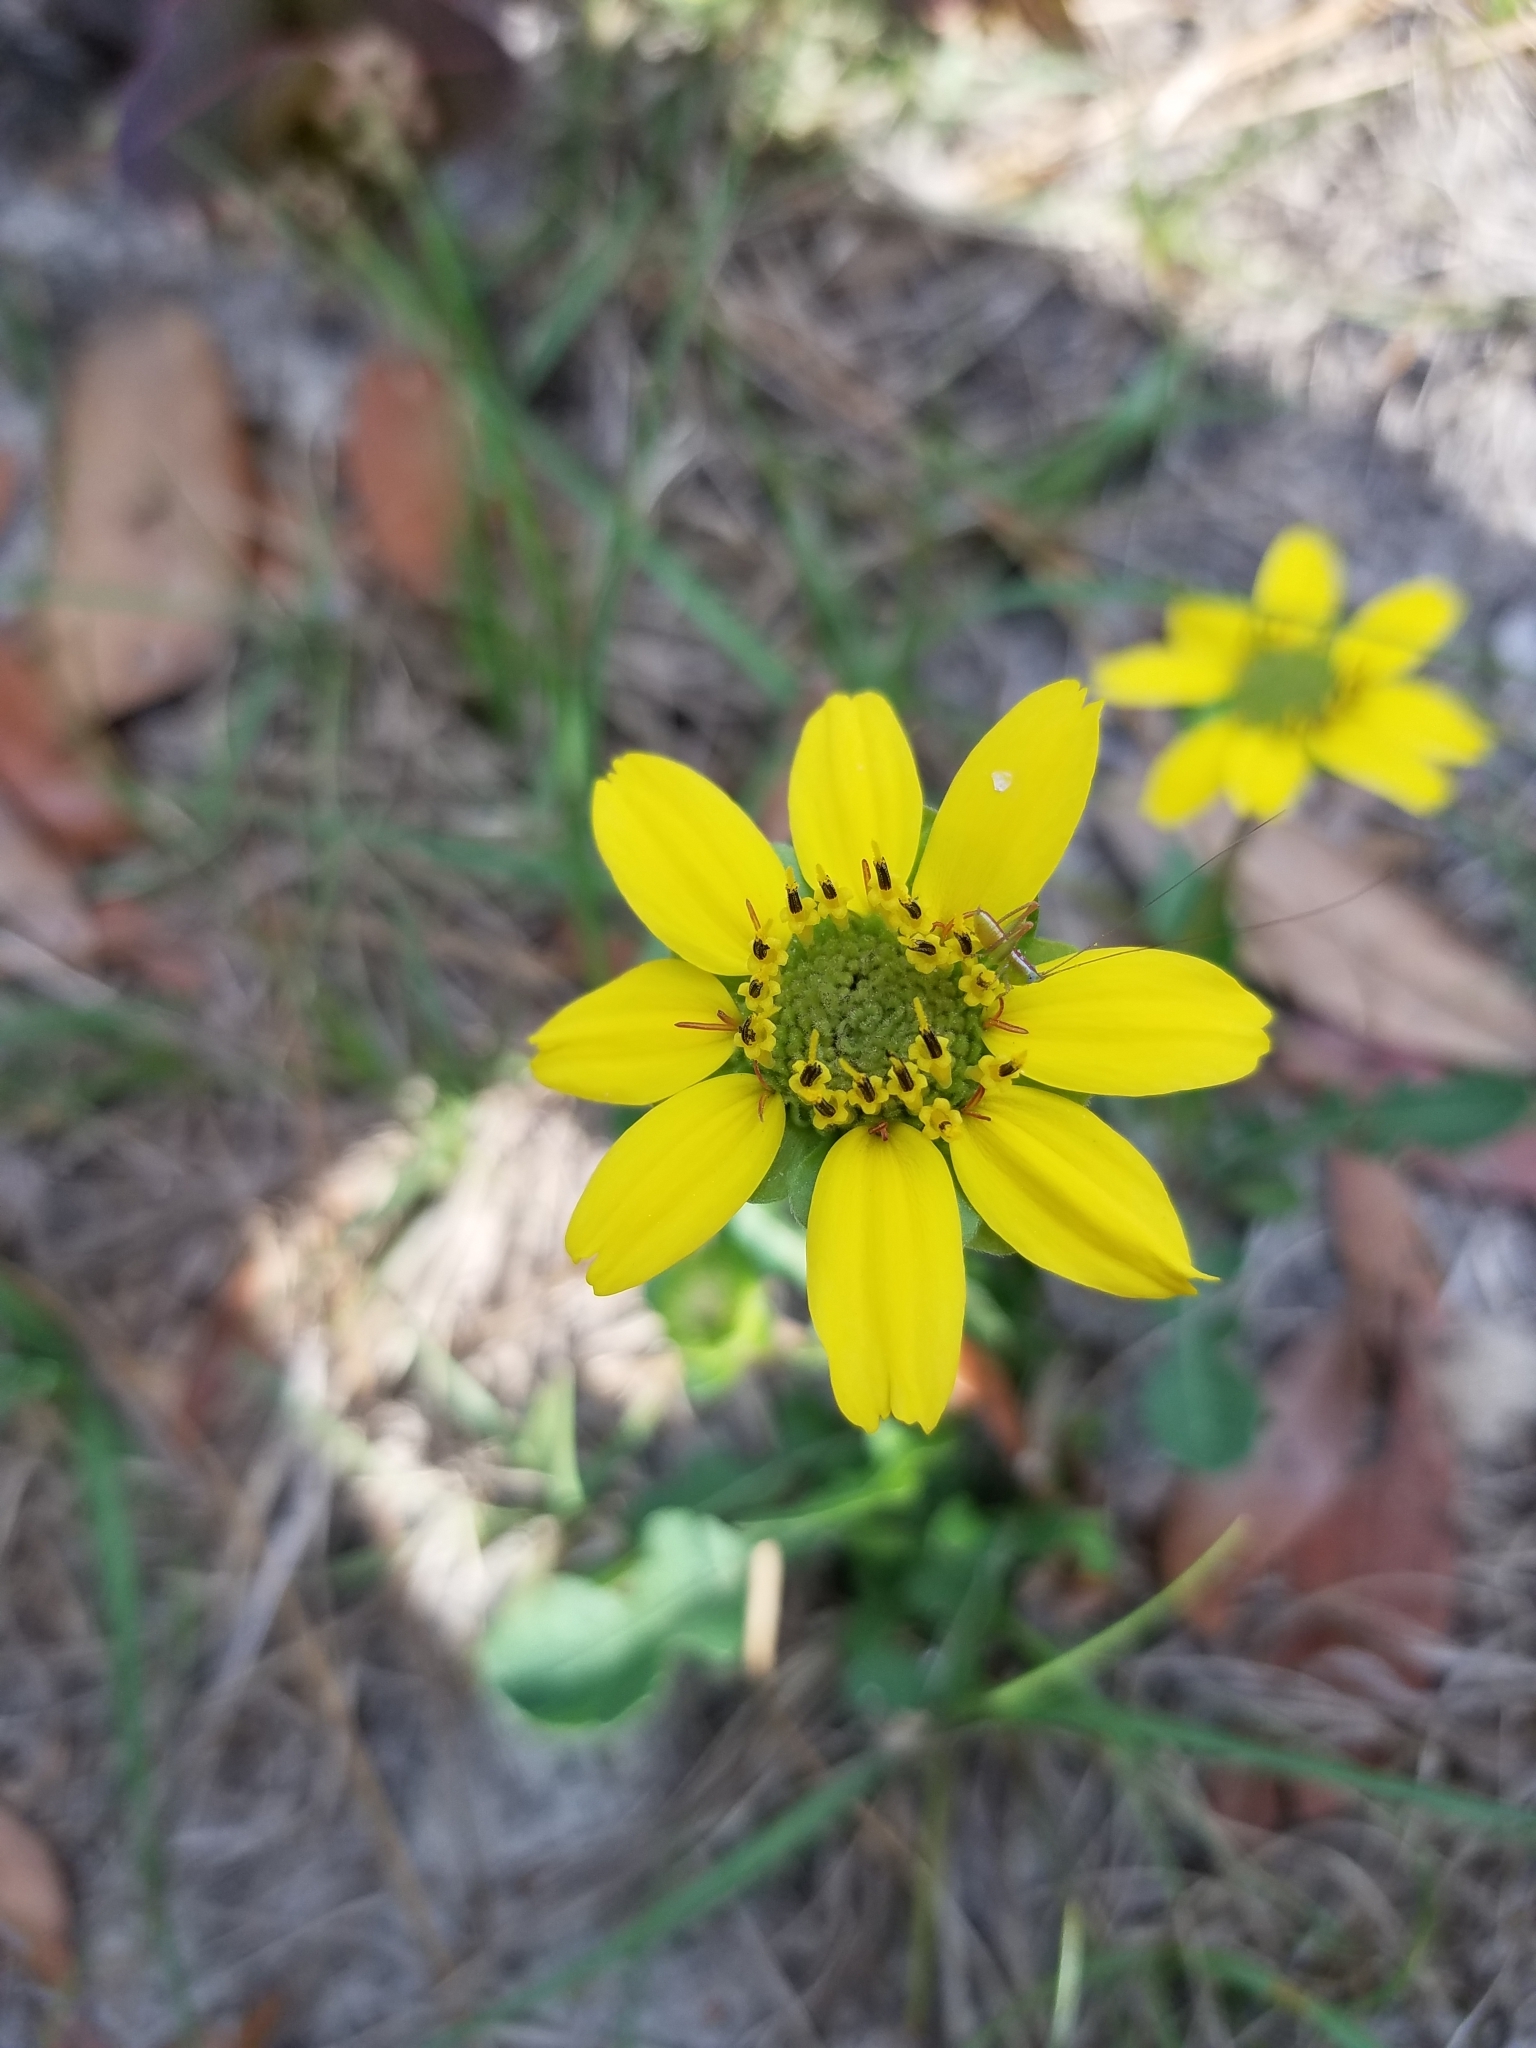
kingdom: Plantae
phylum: Tracheophyta
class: Magnoliopsida
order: Asterales
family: Asteraceae
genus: Berlandiera
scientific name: Berlandiera subacaulis
